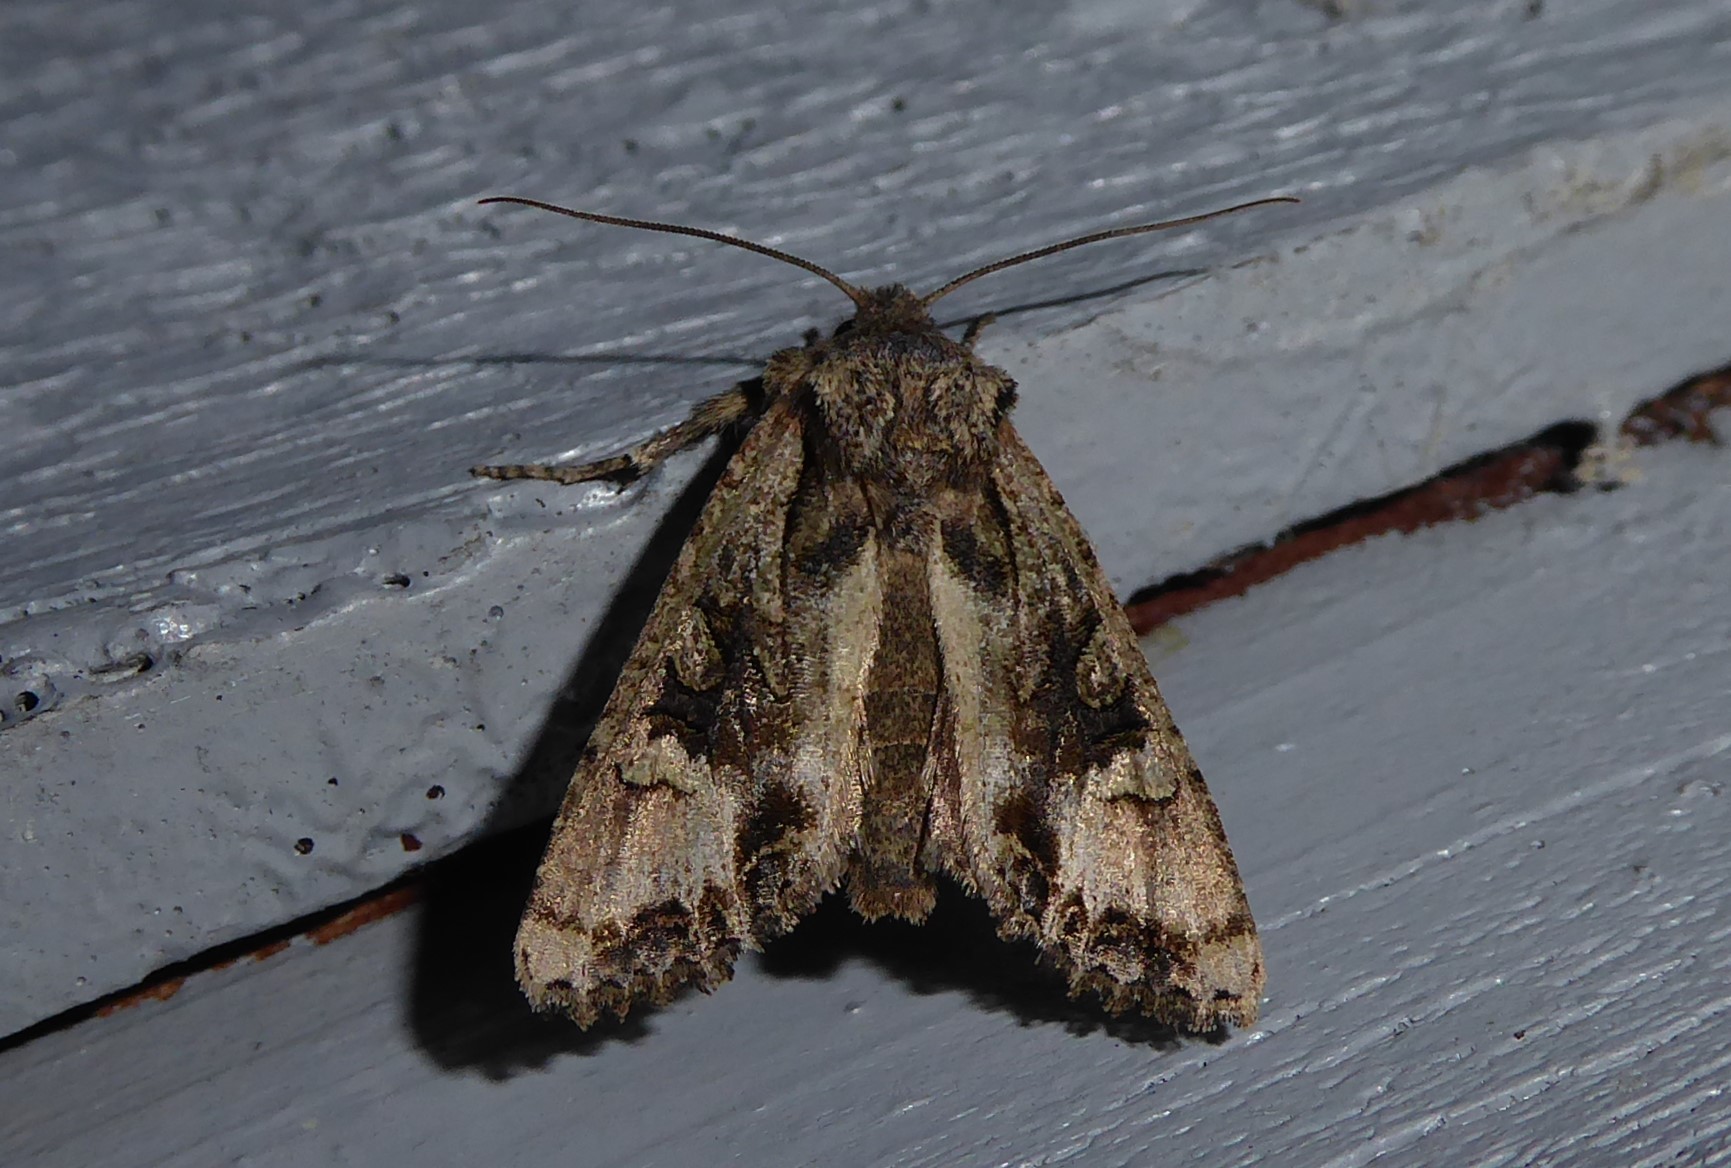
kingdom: Animalia
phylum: Arthropoda
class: Insecta
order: Lepidoptera
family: Noctuidae
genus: Ichneutica
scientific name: Ichneutica
